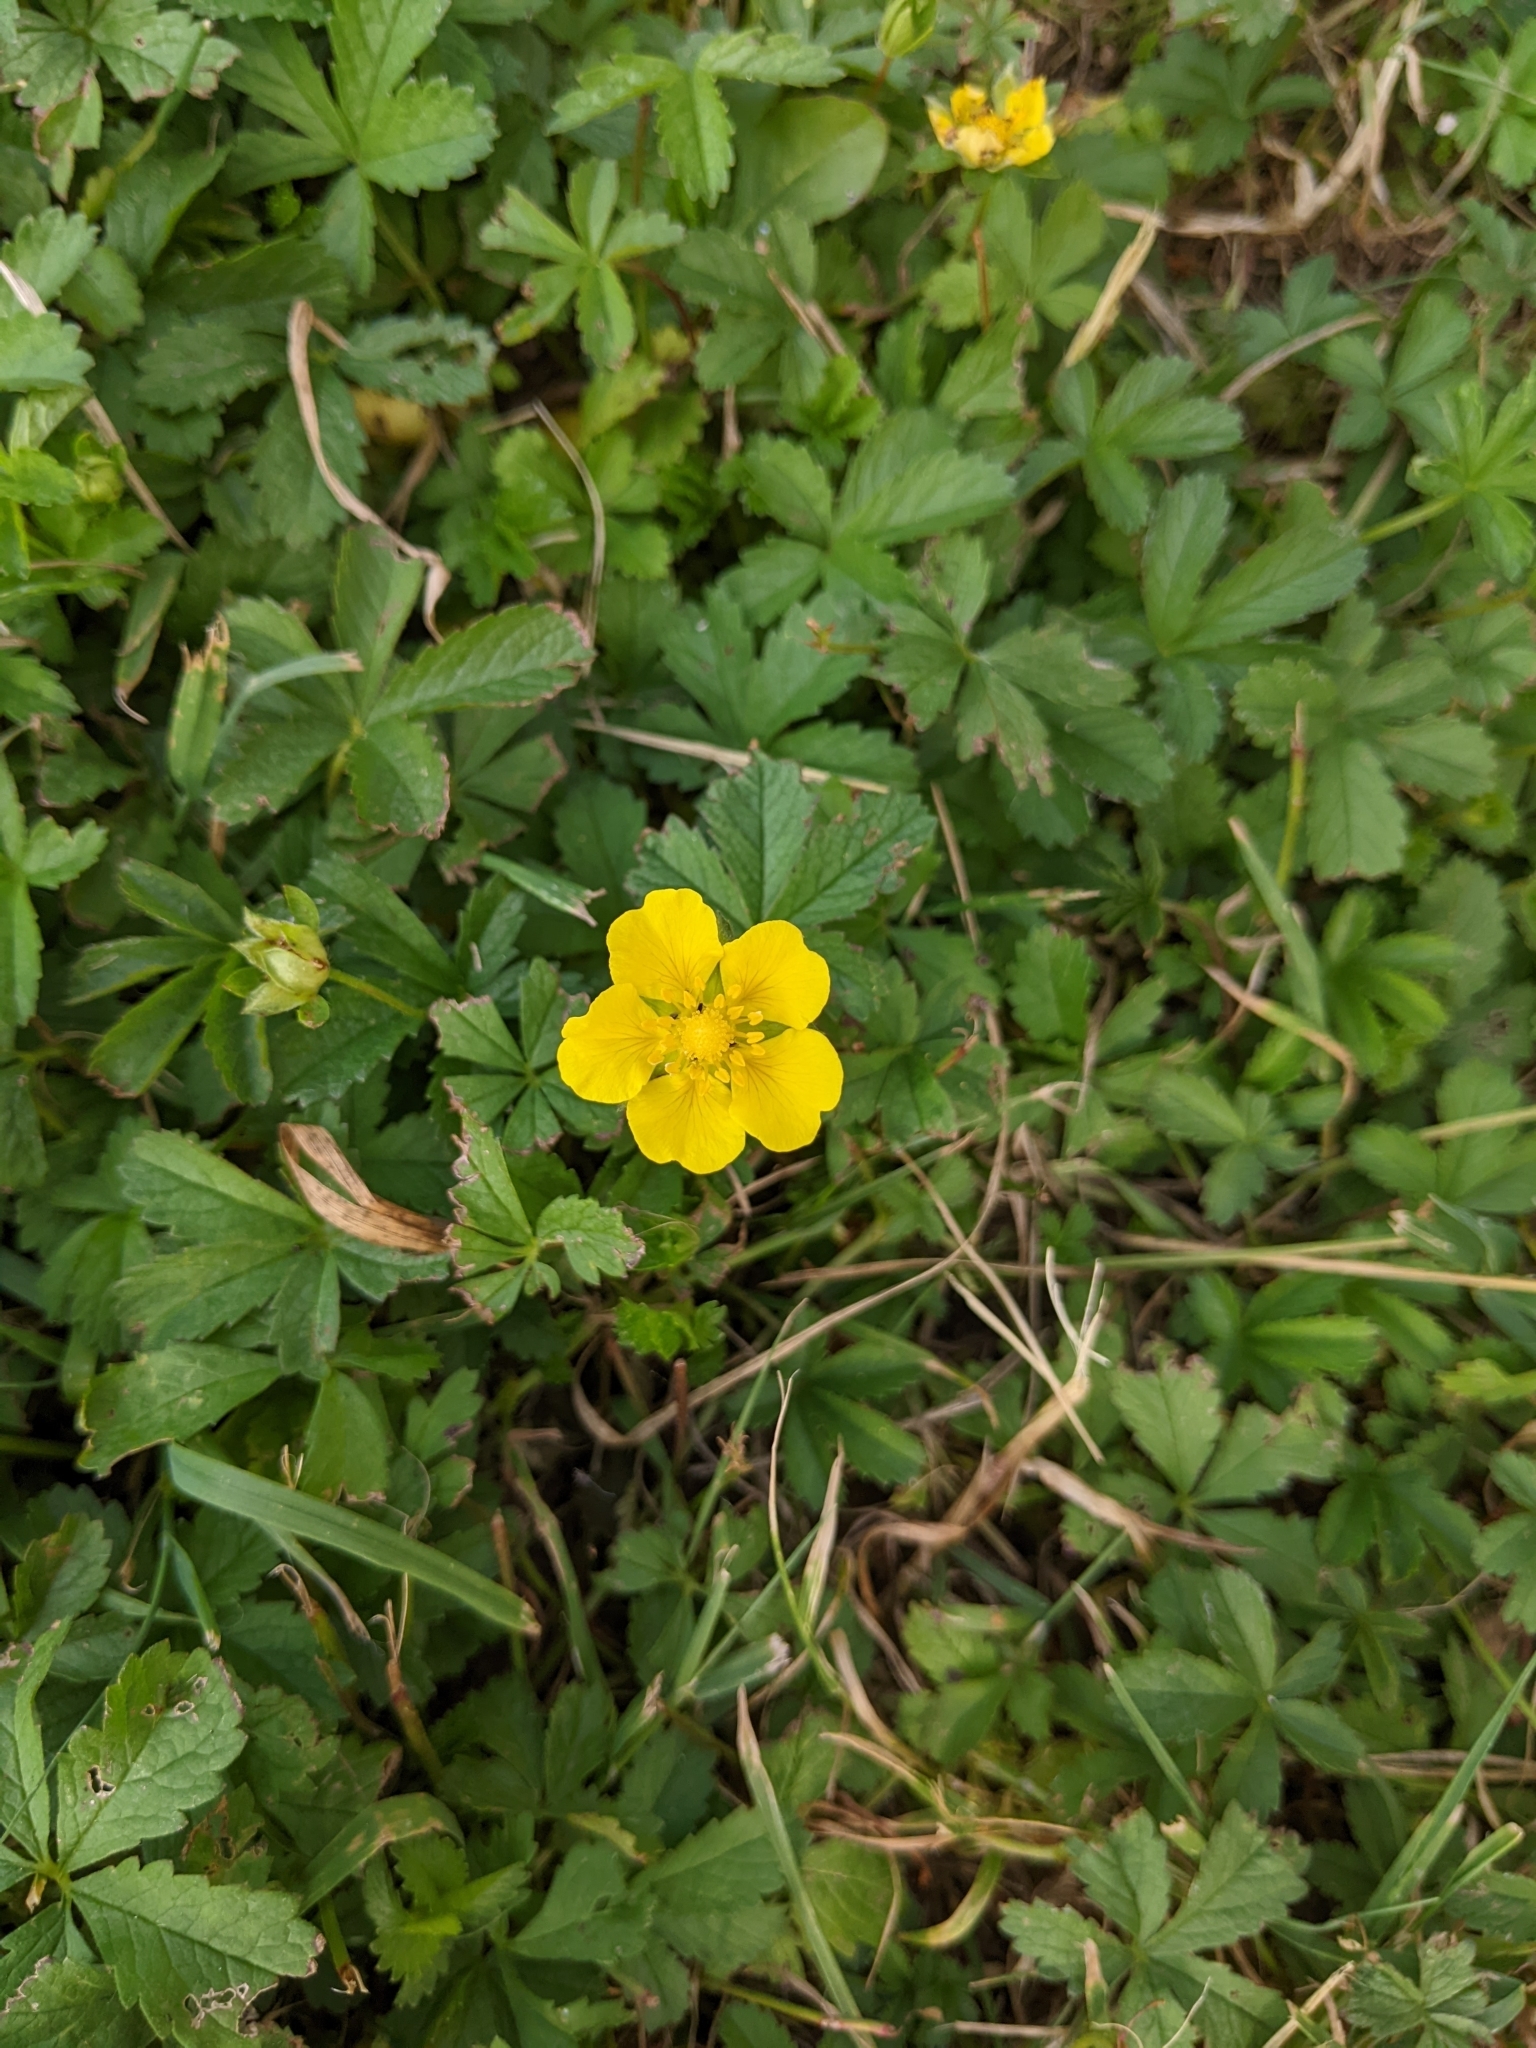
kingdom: Plantae
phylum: Tracheophyta
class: Magnoliopsida
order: Rosales
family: Rosaceae
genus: Potentilla
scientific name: Potentilla reptans
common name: Creeping cinquefoil
